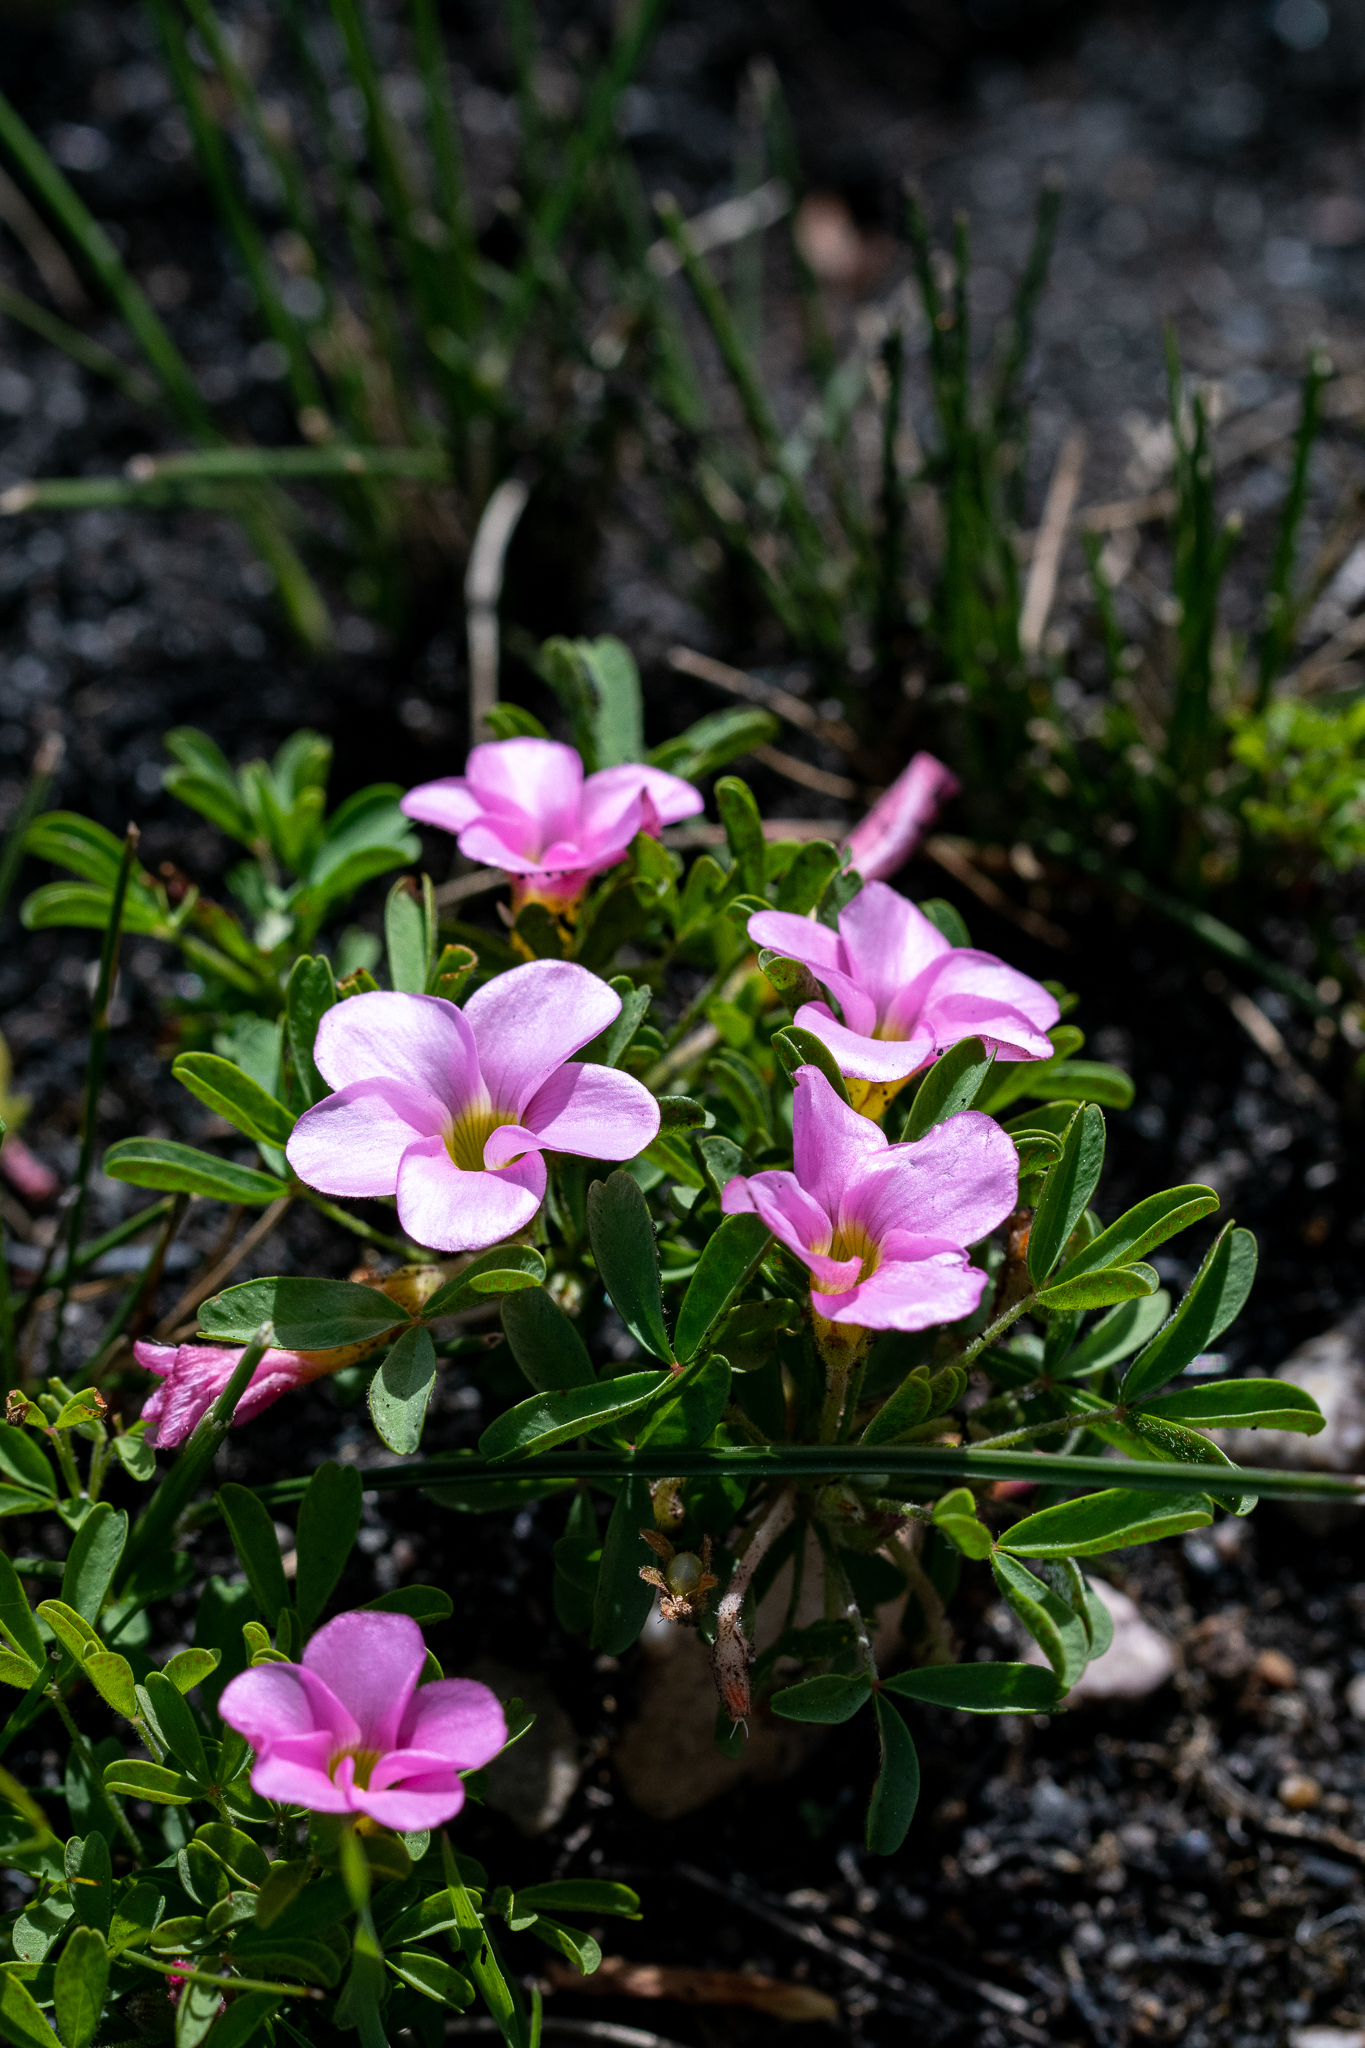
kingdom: Plantae
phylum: Tracheophyta
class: Magnoliopsida
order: Oxalidales
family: Oxalidaceae
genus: Oxalis
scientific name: Oxalis multicaulis
